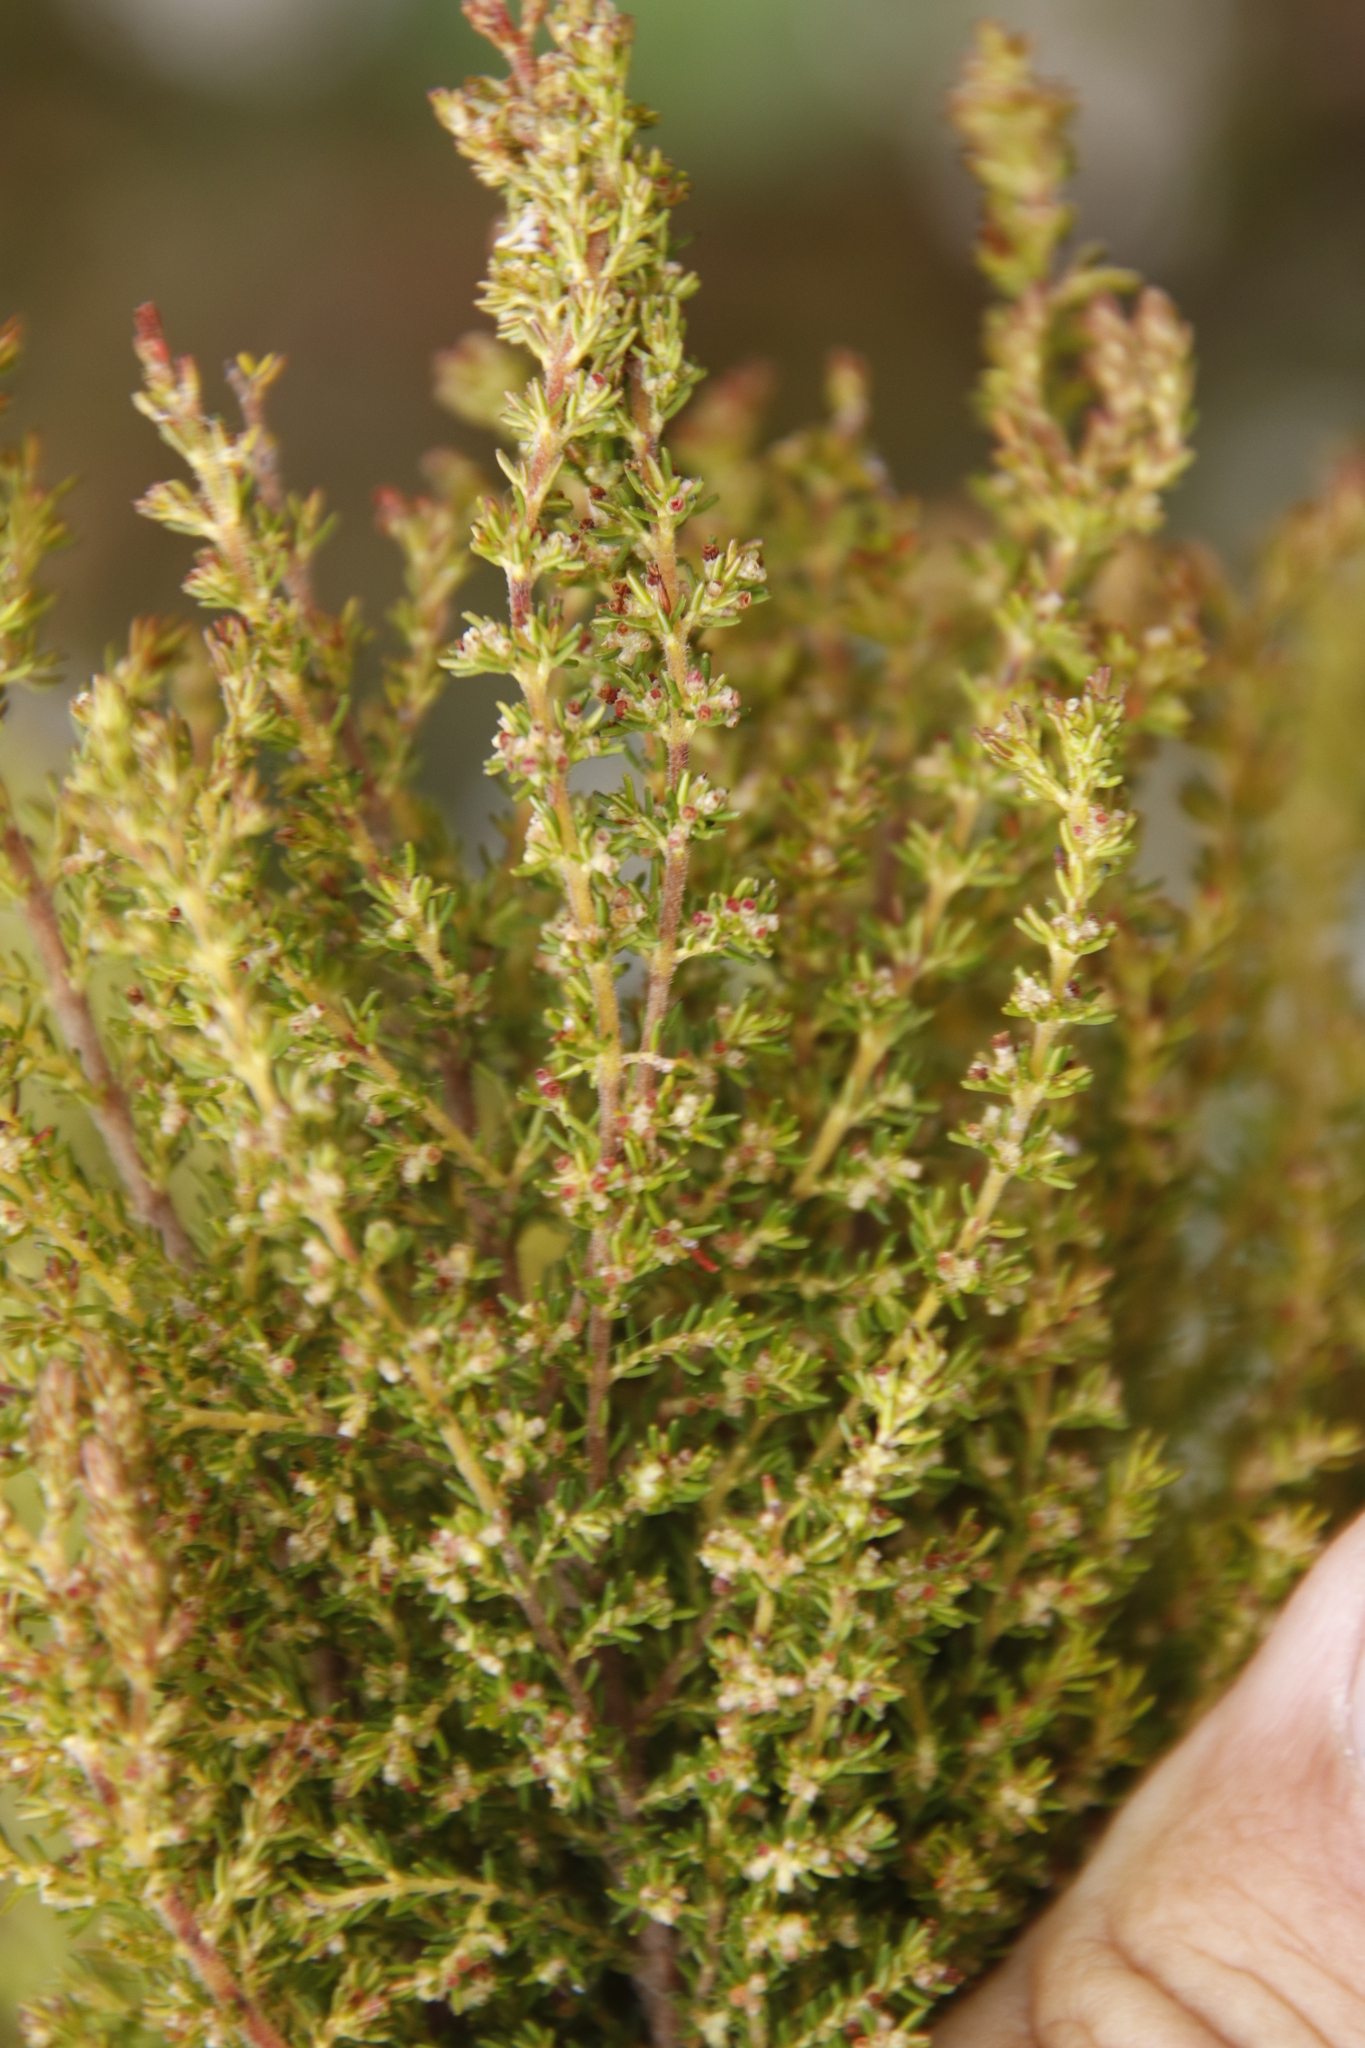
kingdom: Plantae
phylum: Tracheophyta
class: Magnoliopsida
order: Ericales
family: Ericaceae
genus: Erica
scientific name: Erica muscosa
